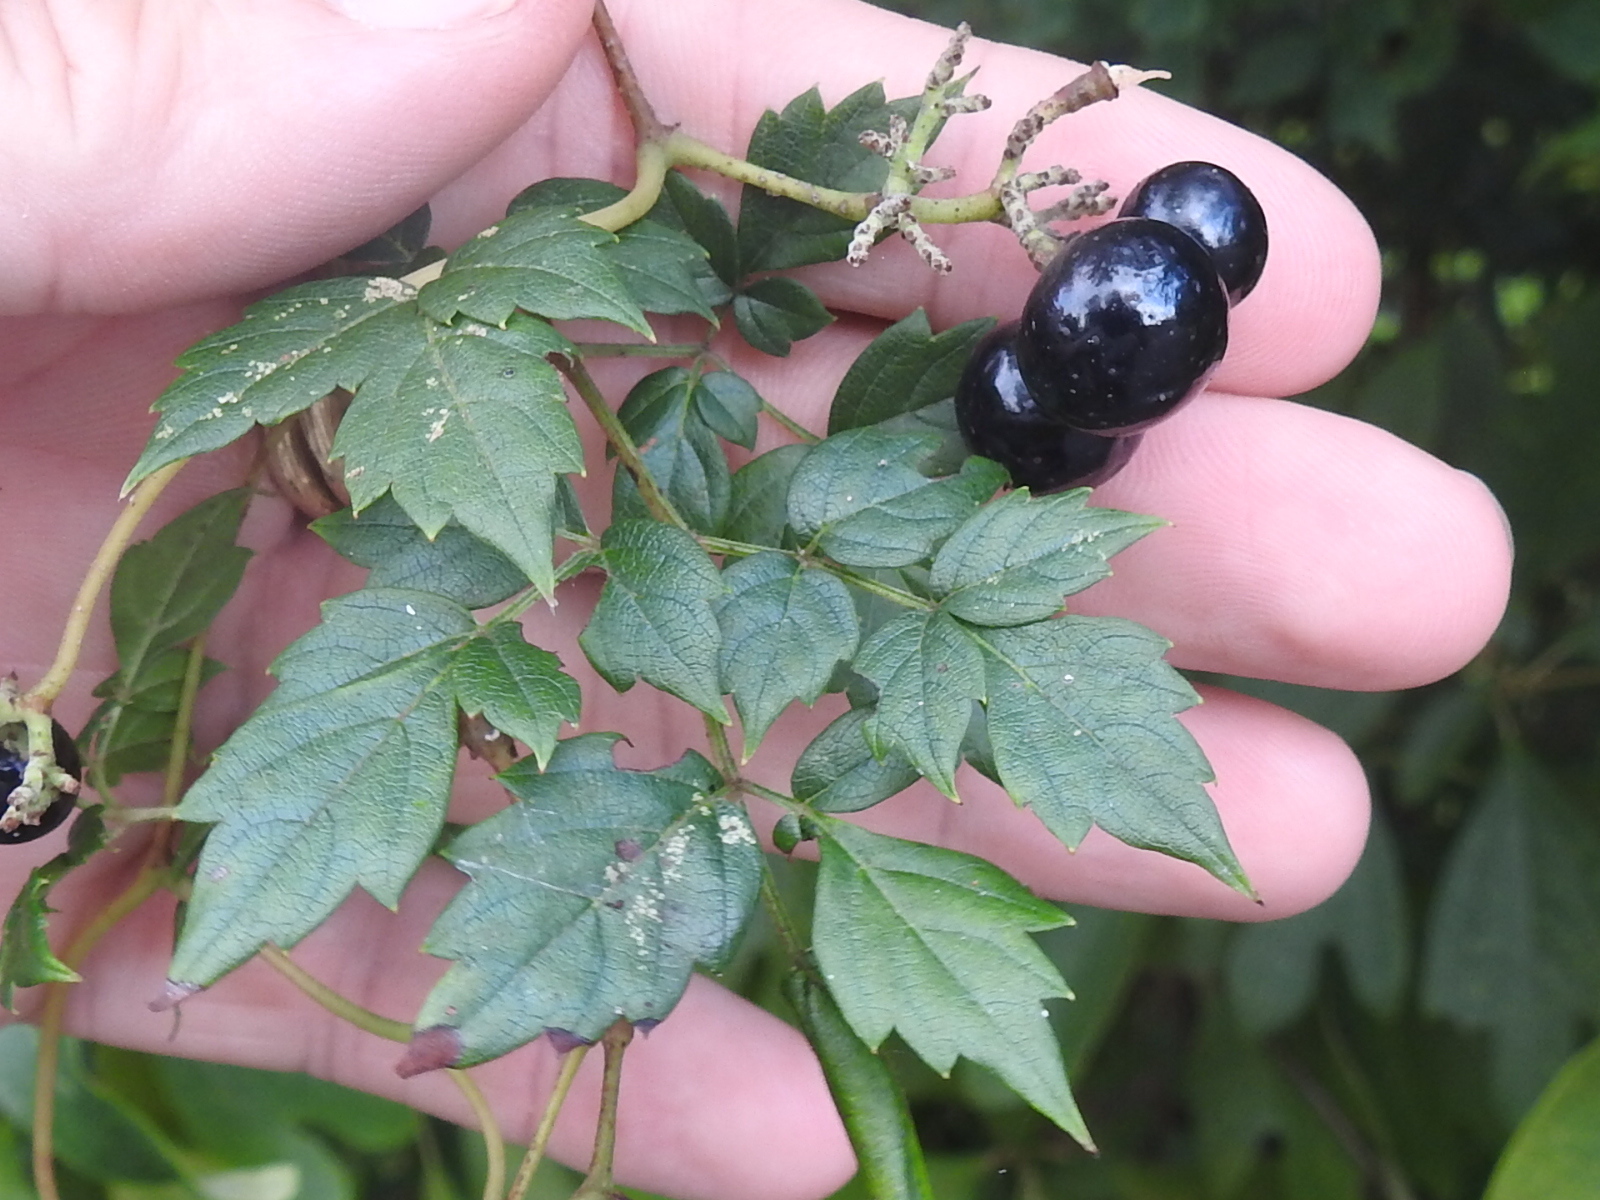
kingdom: Plantae
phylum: Tracheophyta
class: Magnoliopsida
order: Vitales
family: Vitaceae
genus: Nekemias
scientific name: Nekemias arborea
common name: Peppervine
